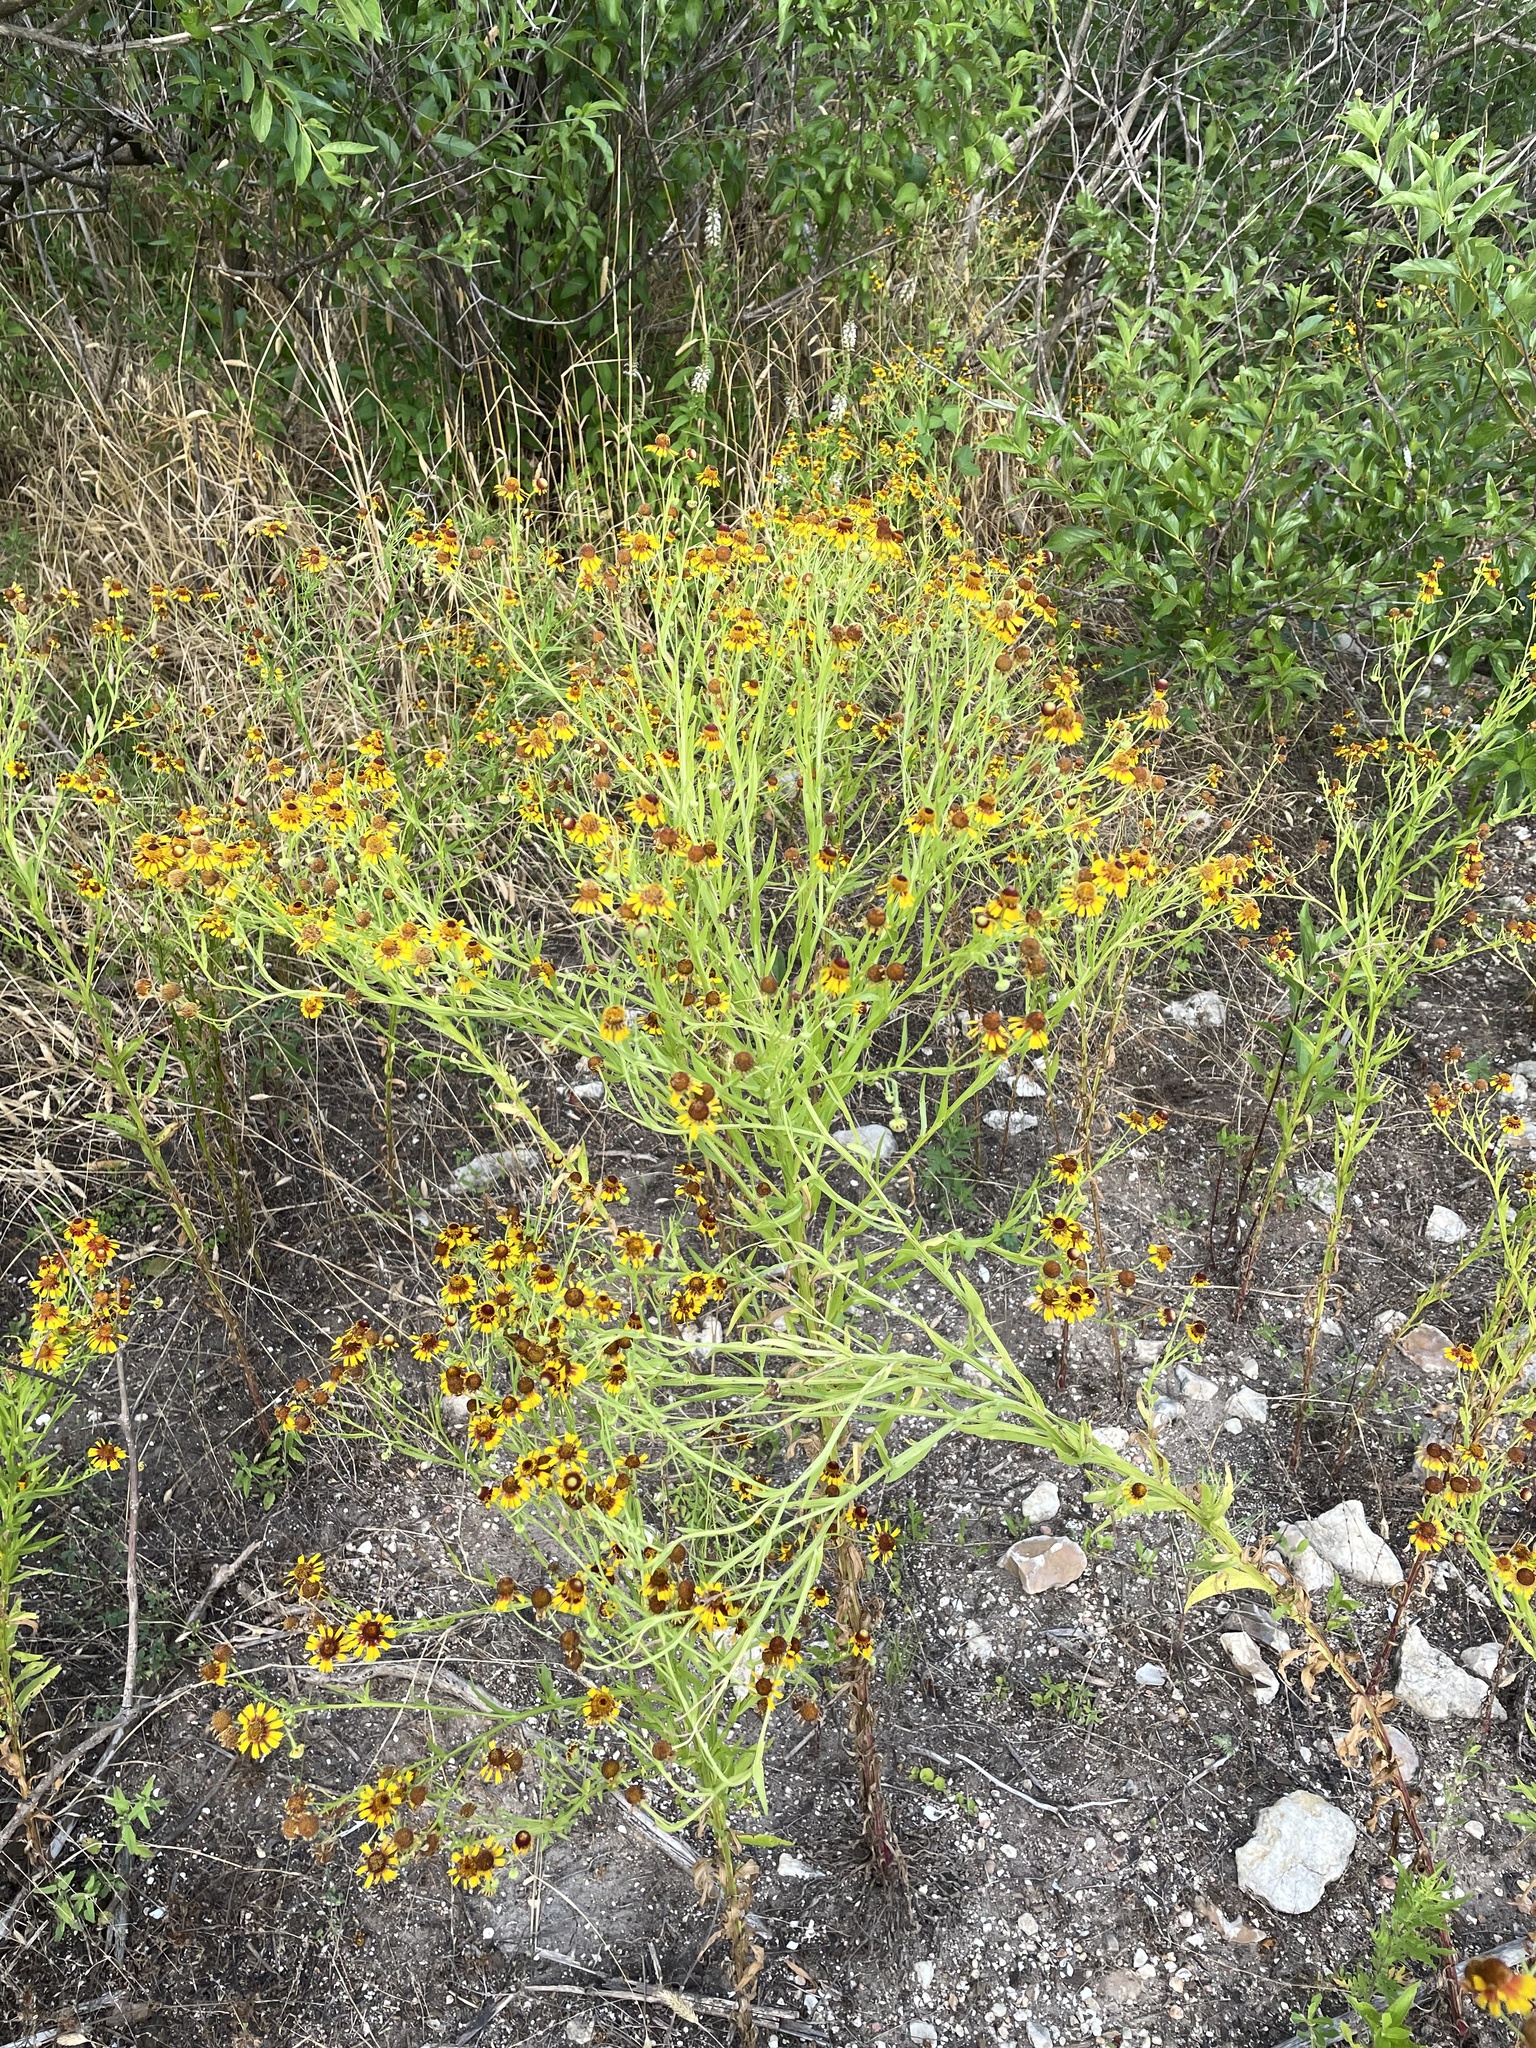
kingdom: Plantae
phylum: Tracheophyta
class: Magnoliopsida
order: Asterales
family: Asteraceae
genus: Helenium
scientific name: Helenium elegans
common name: Pretty sneezeweed
